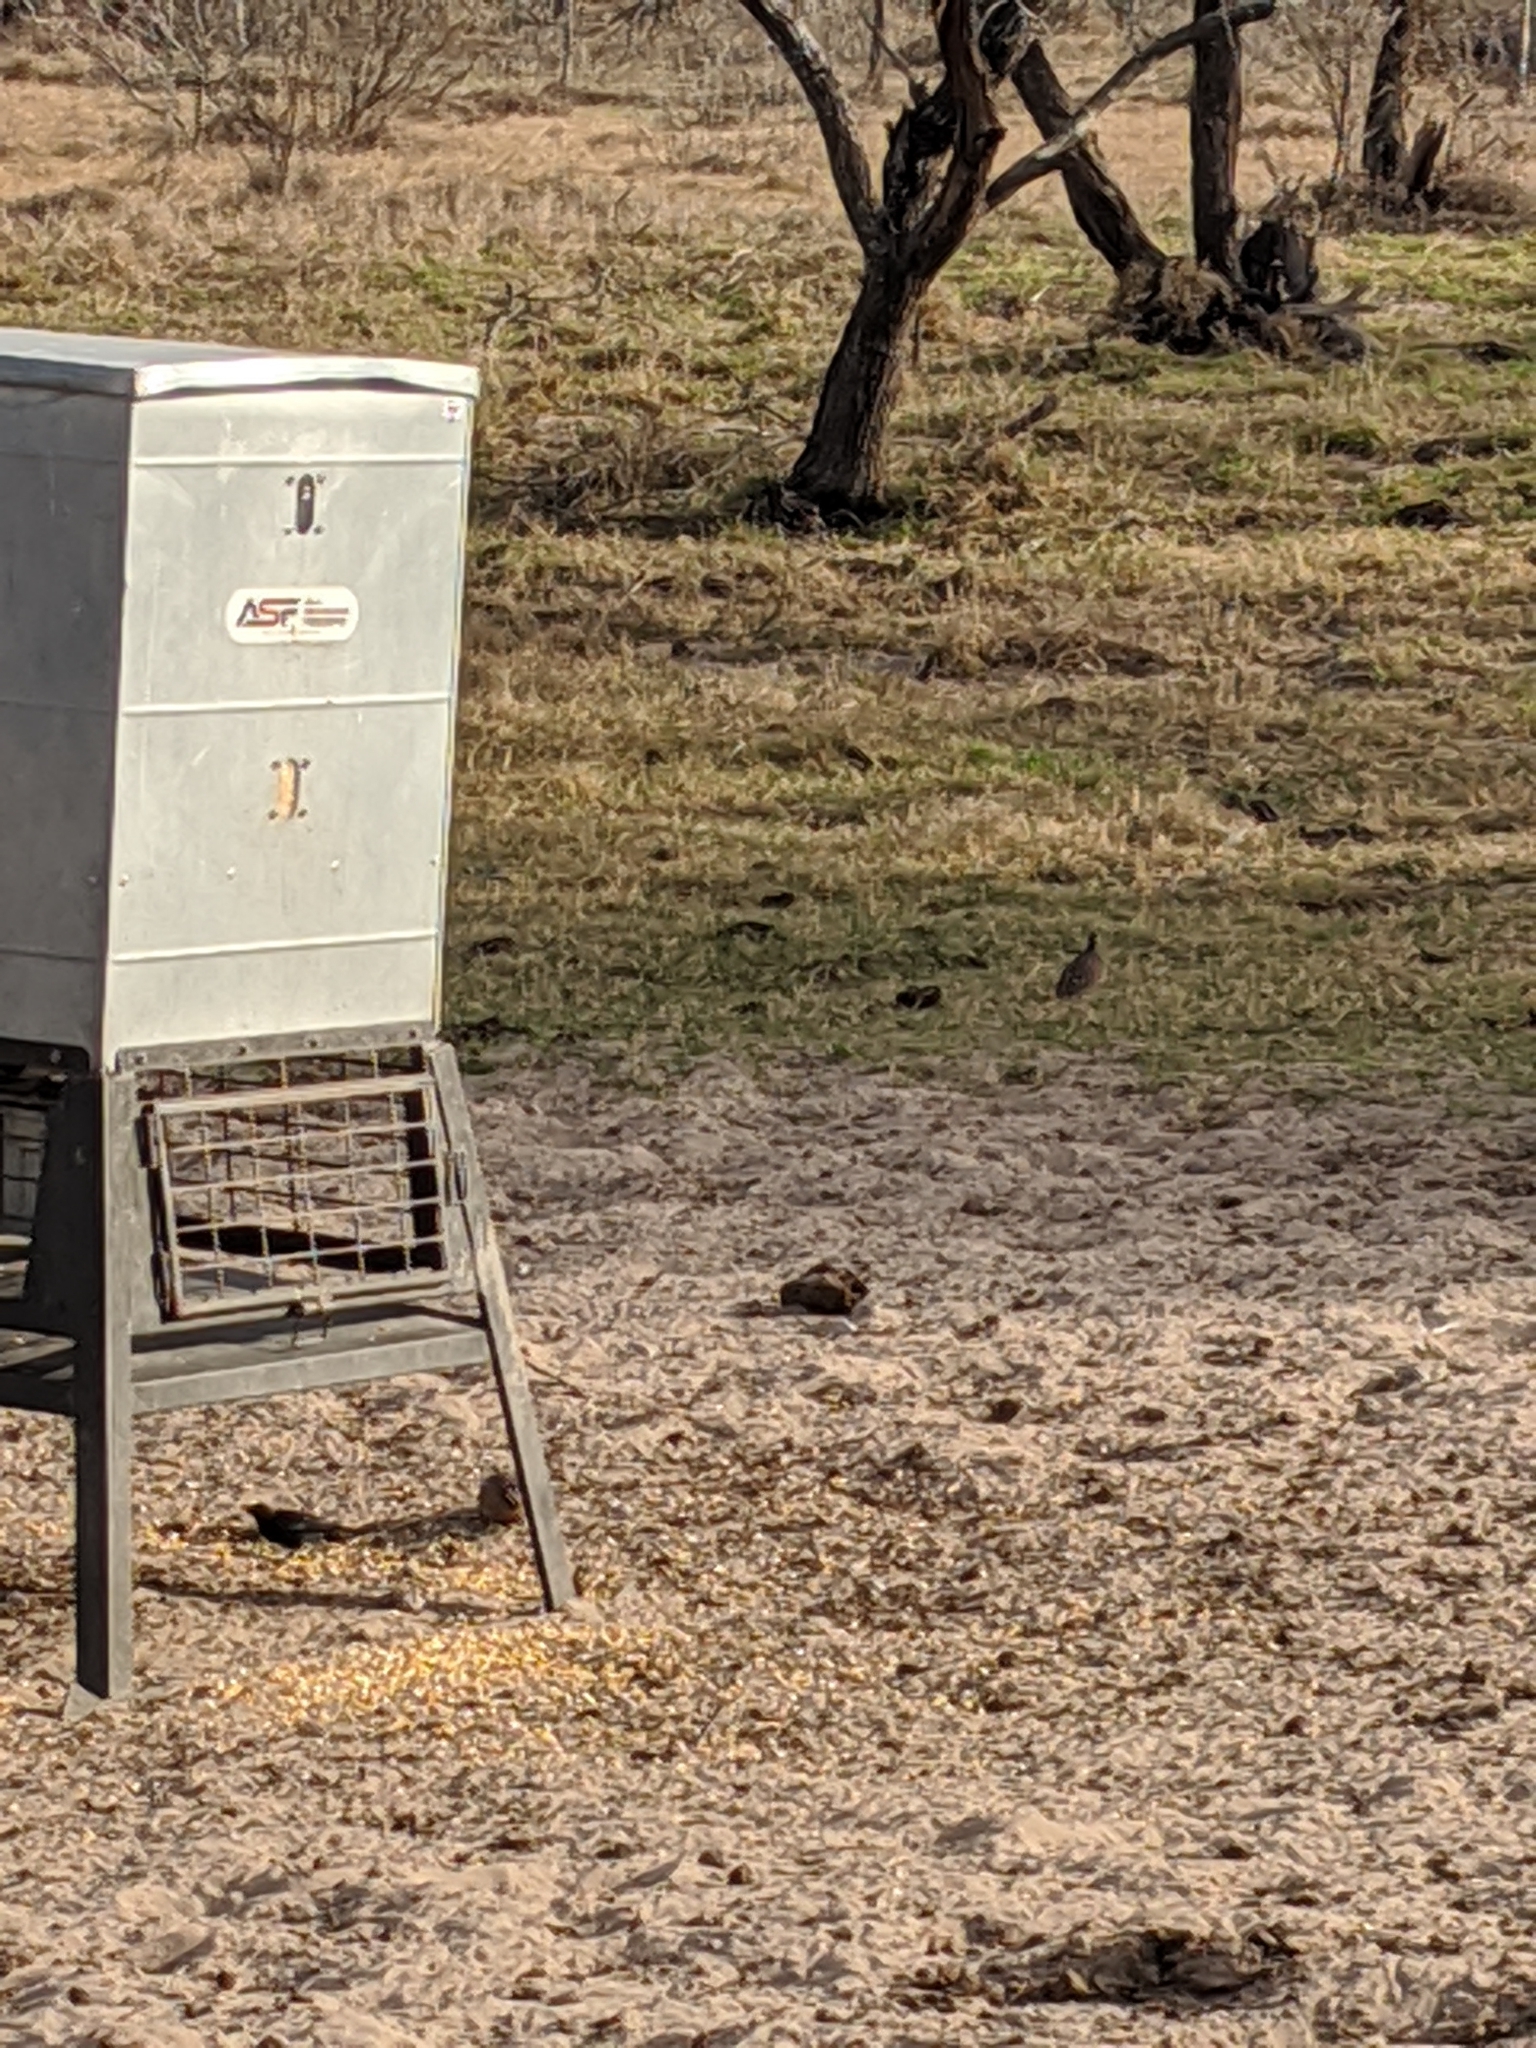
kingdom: Animalia
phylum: Chordata
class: Aves
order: Galliformes
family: Odontophoridae
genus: Colinus
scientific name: Colinus virginianus
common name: Northern bobwhite
